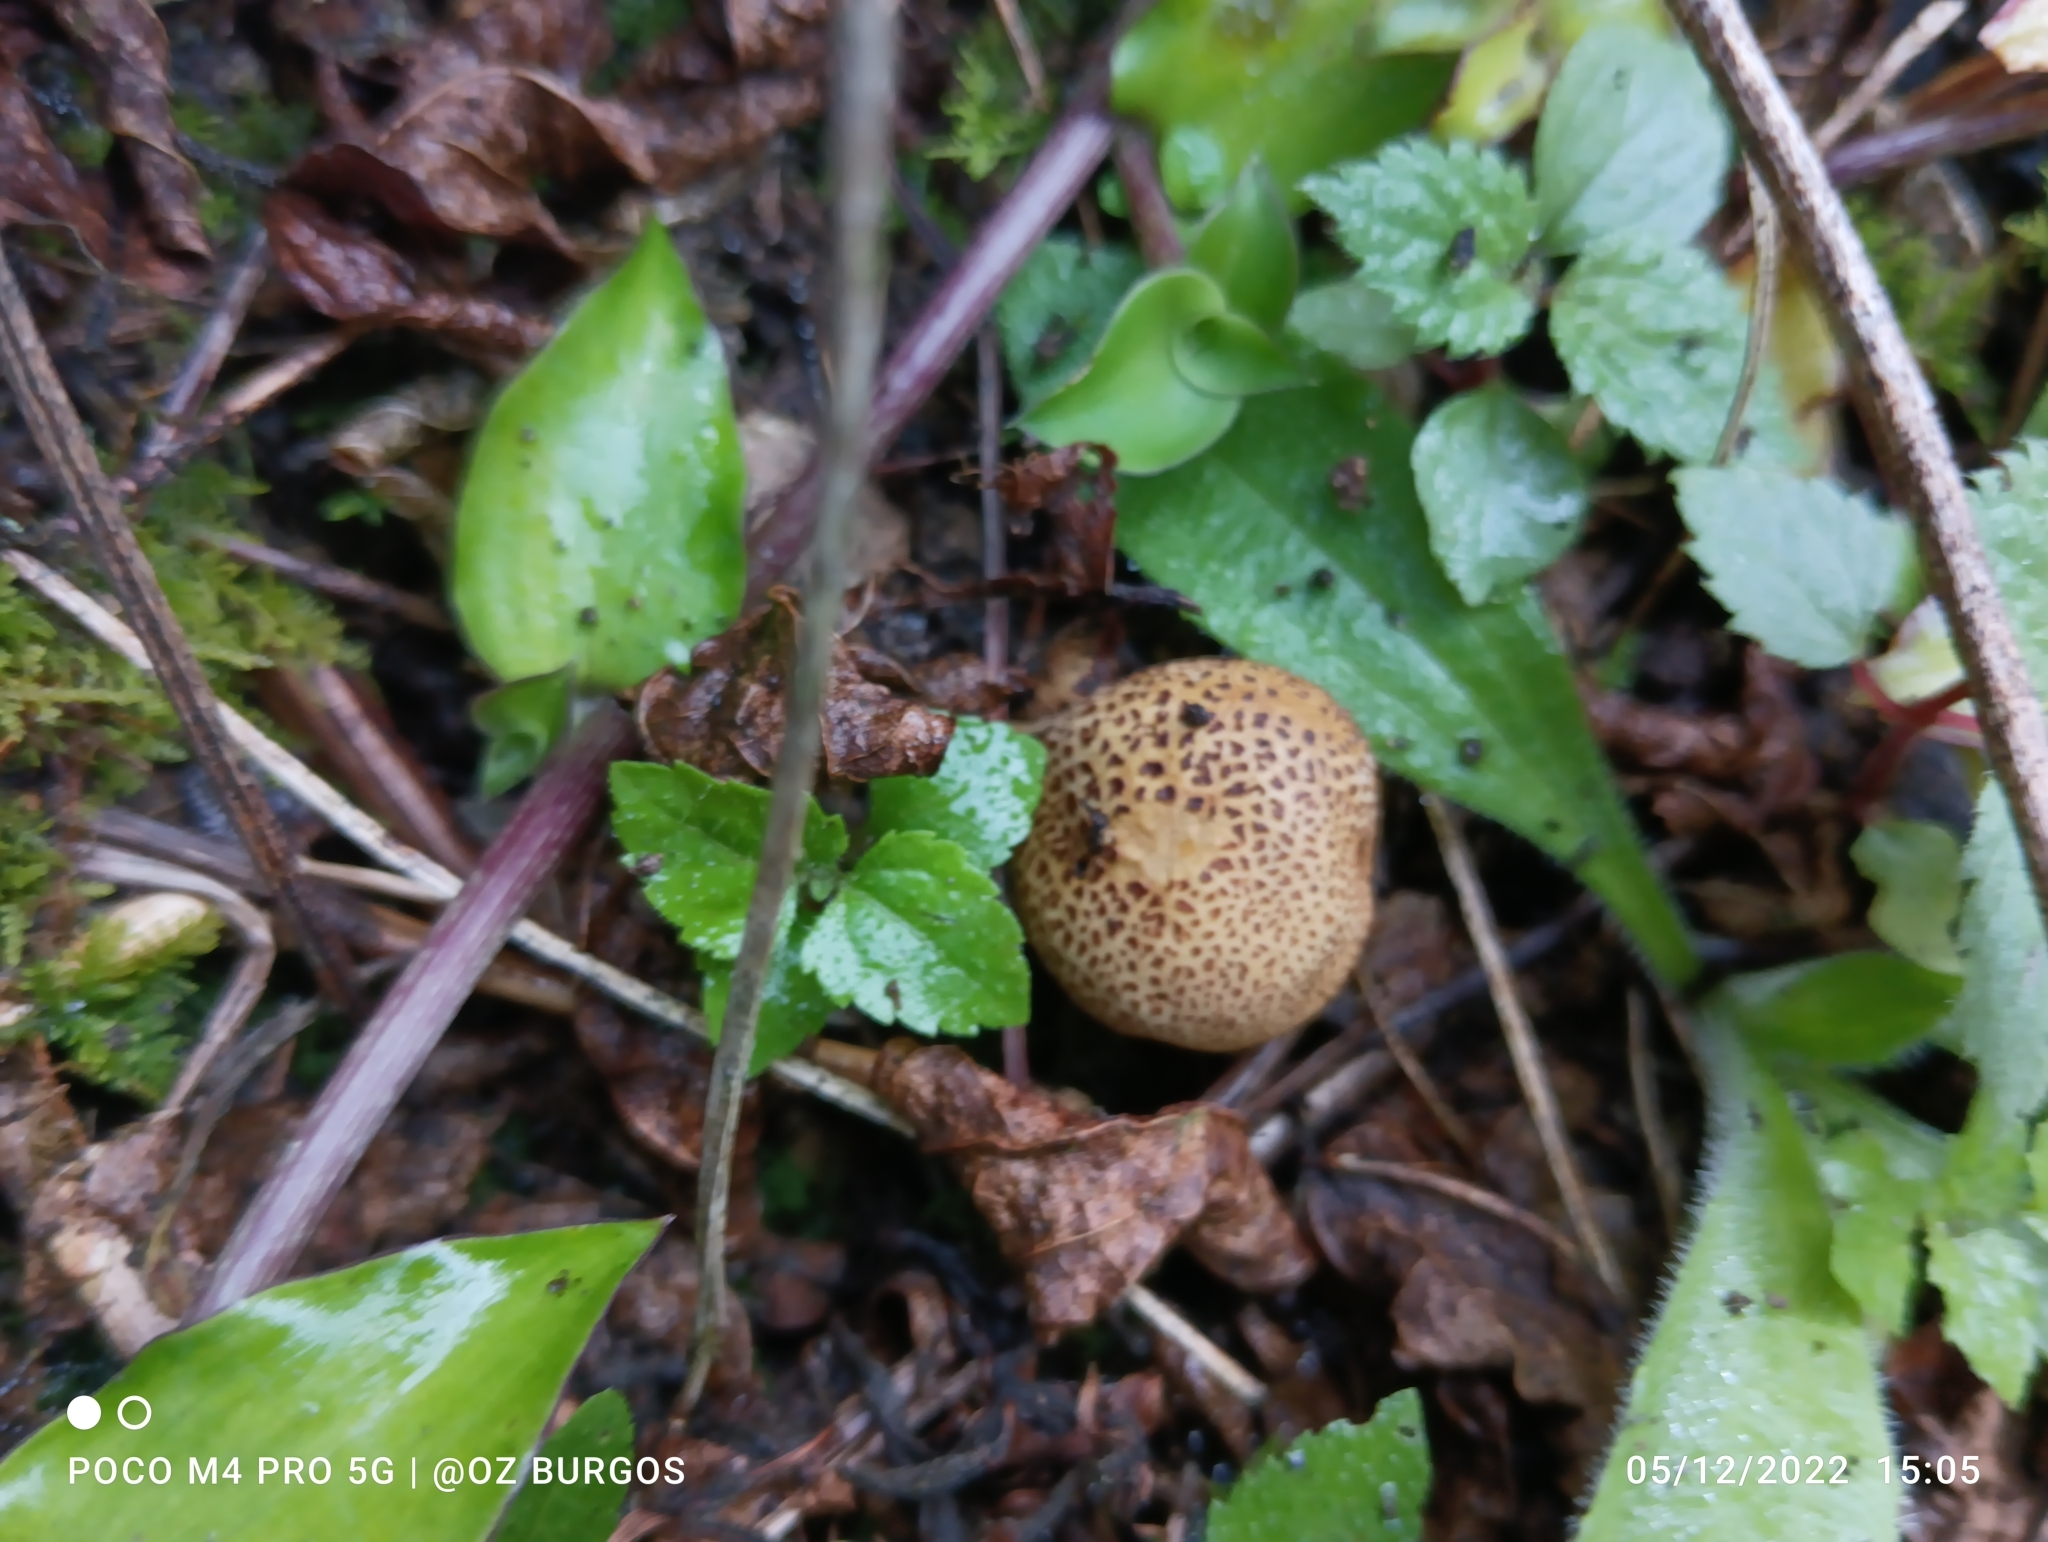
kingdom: Fungi
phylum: Basidiomycota
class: Agaricomycetes
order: Boletales
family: Sclerodermataceae
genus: Scleroderma
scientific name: Scleroderma verrucosum
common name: Scaly earthball
